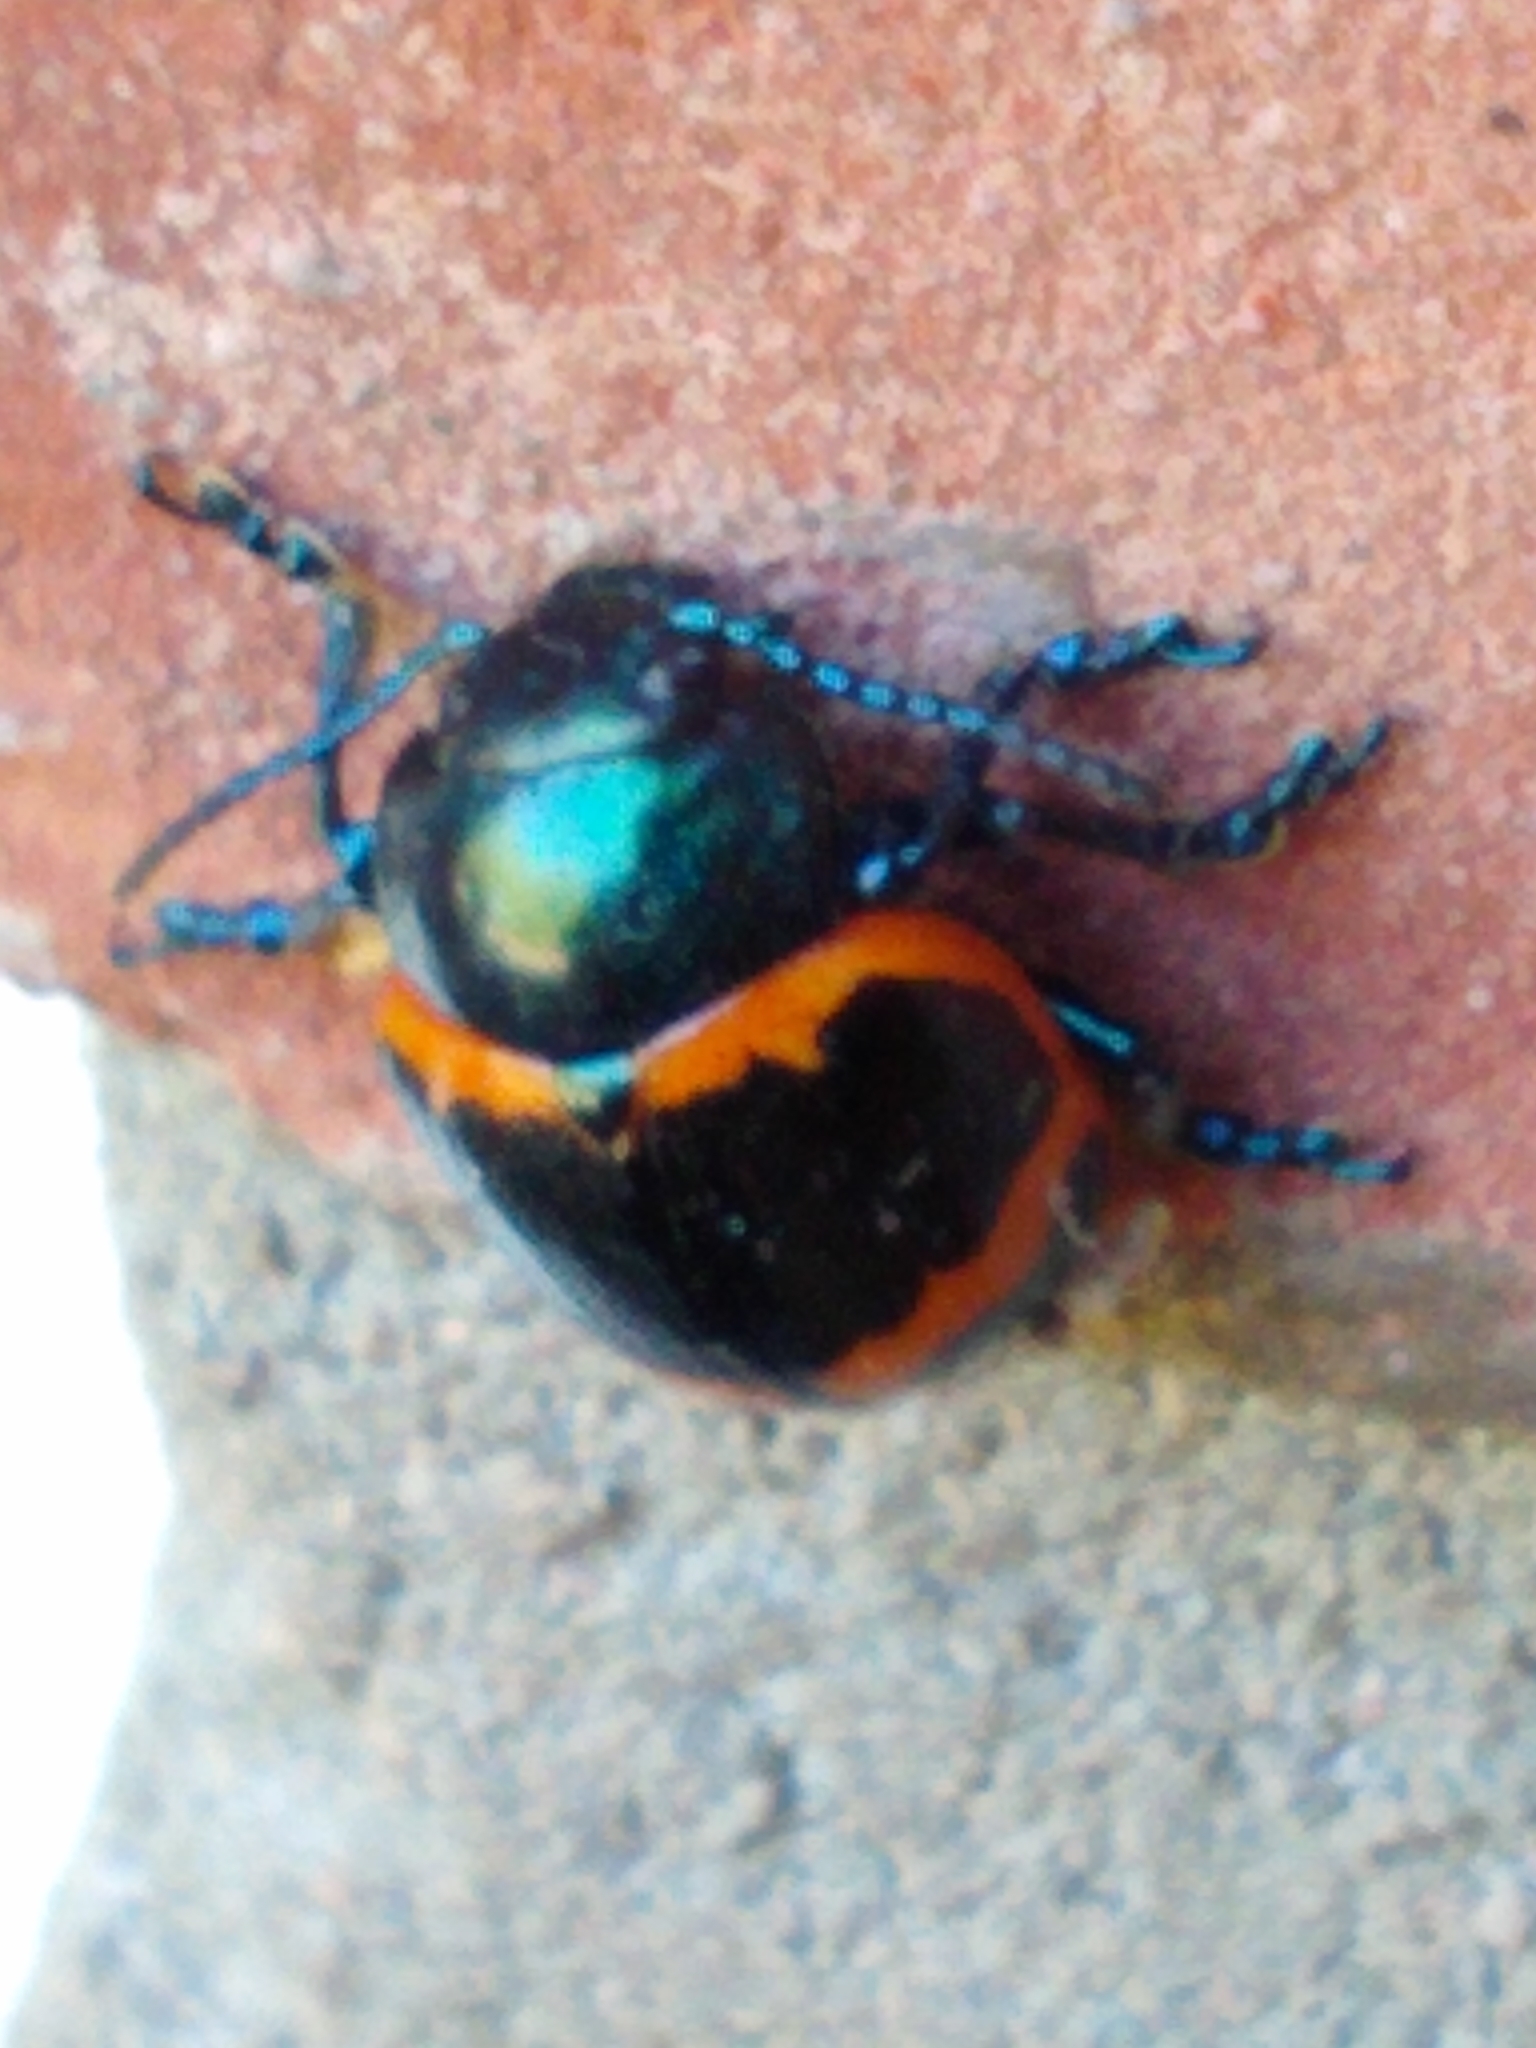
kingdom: Animalia
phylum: Arthropoda
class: Insecta
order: Coleoptera
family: Chrysomelidae
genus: Labidomera
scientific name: Labidomera clivicollis
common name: Swamp milkweed leaf beetle
